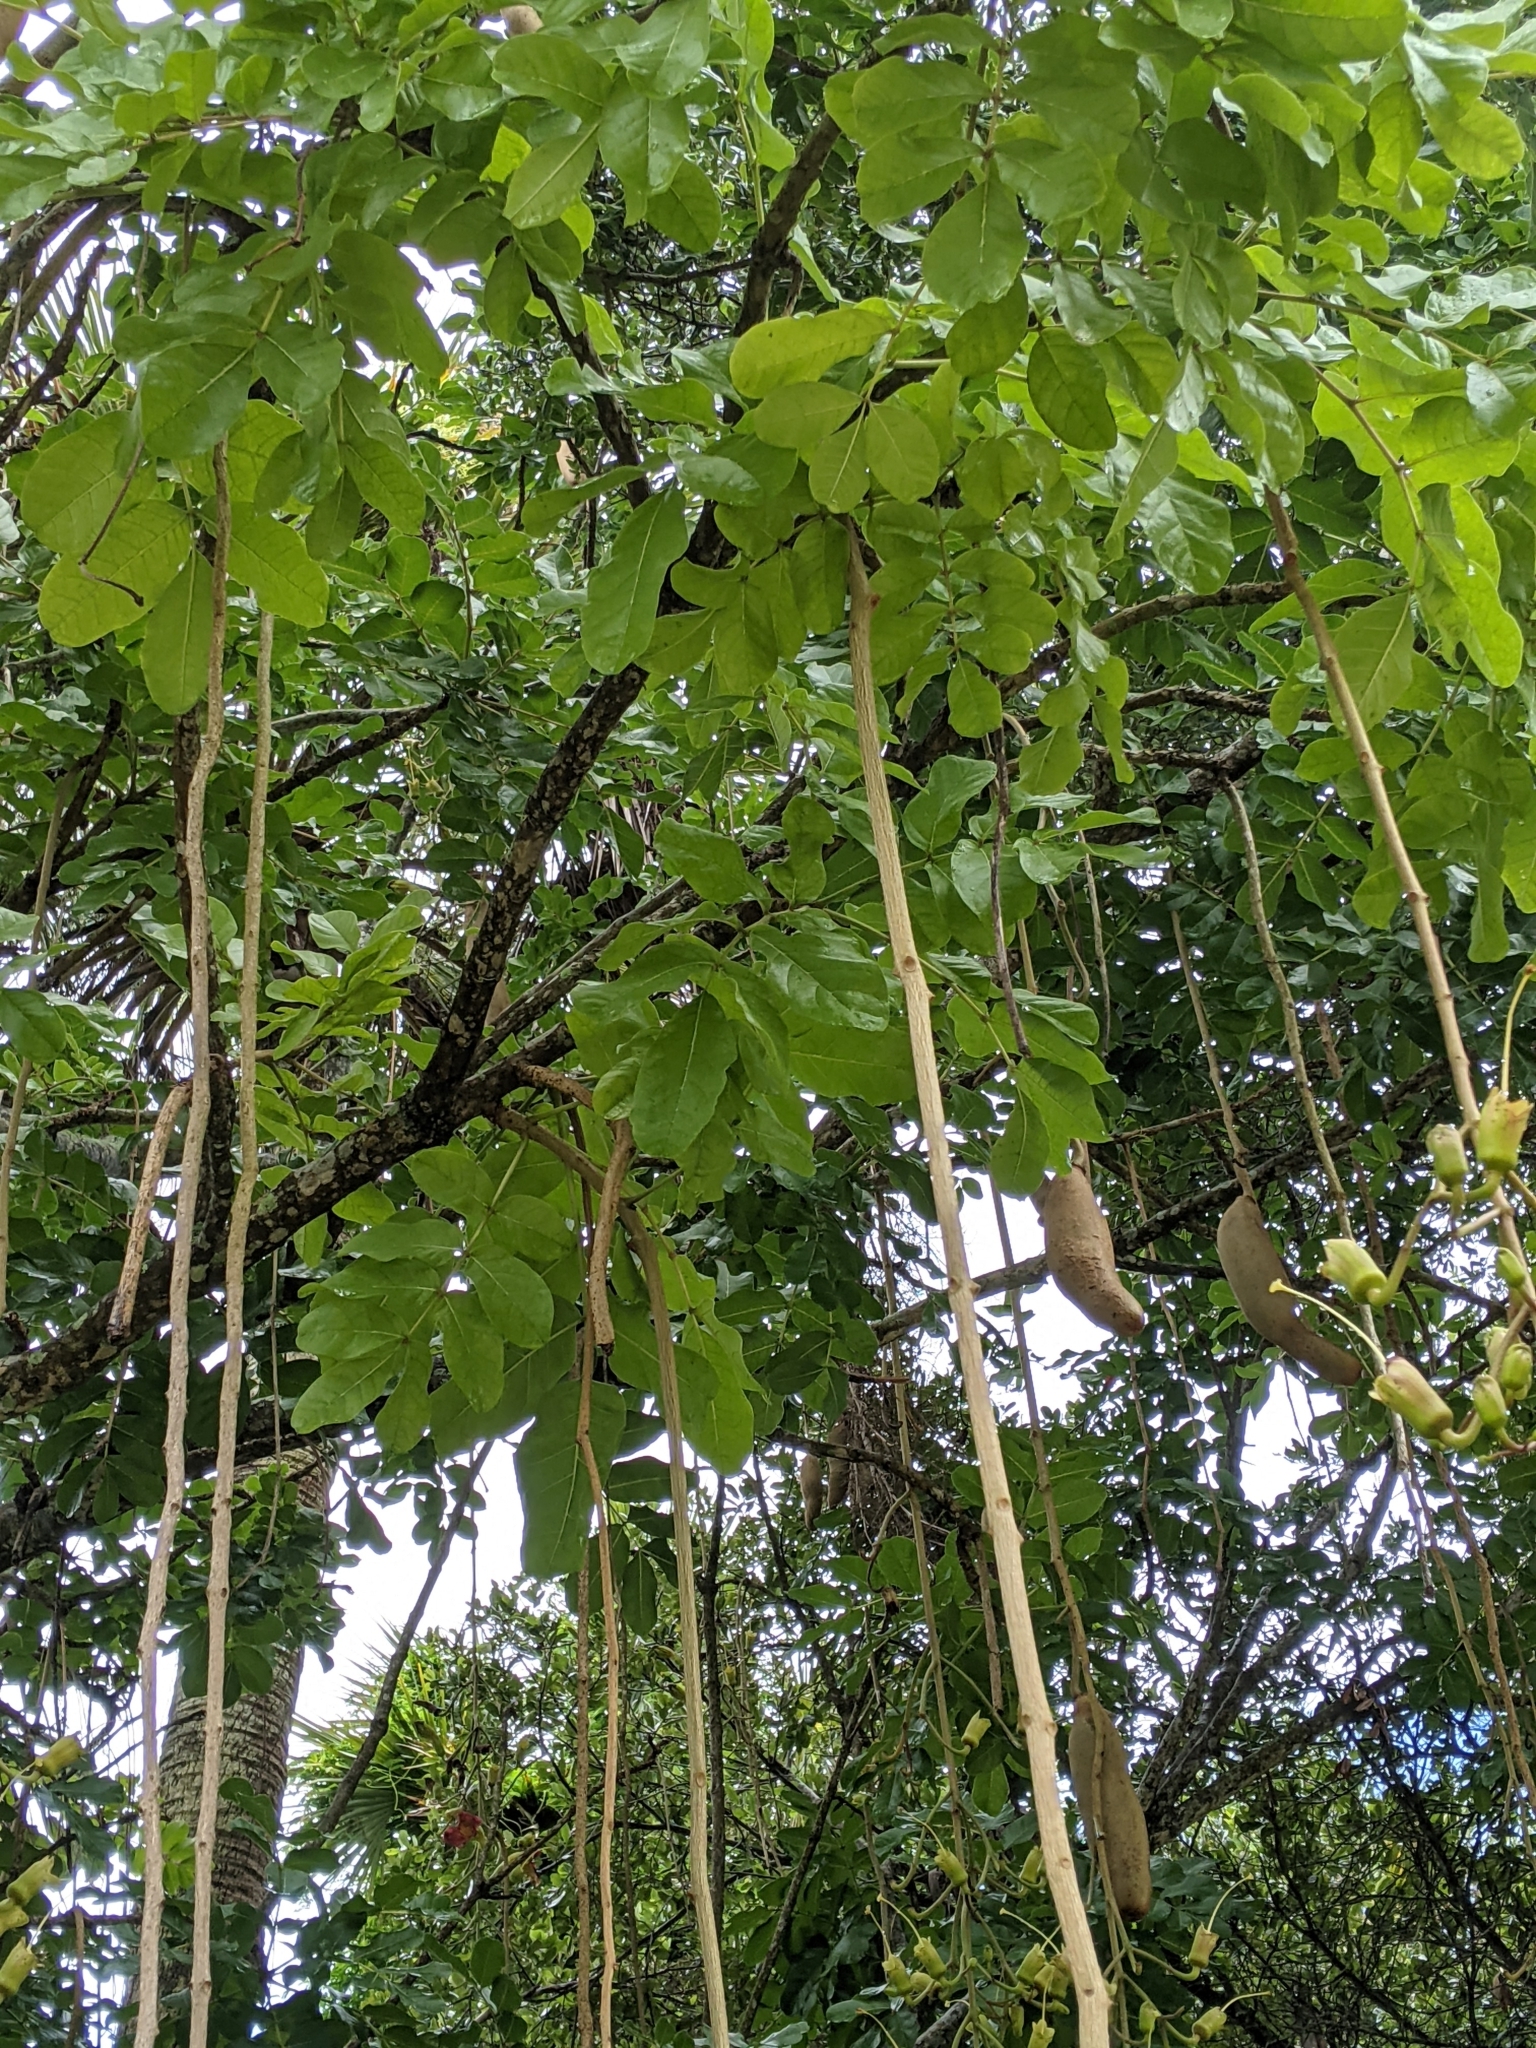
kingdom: Plantae
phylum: Tracheophyta
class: Magnoliopsida
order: Lamiales
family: Bignoniaceae
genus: Kigelia
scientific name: Kigelia africana
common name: Sausage tree
